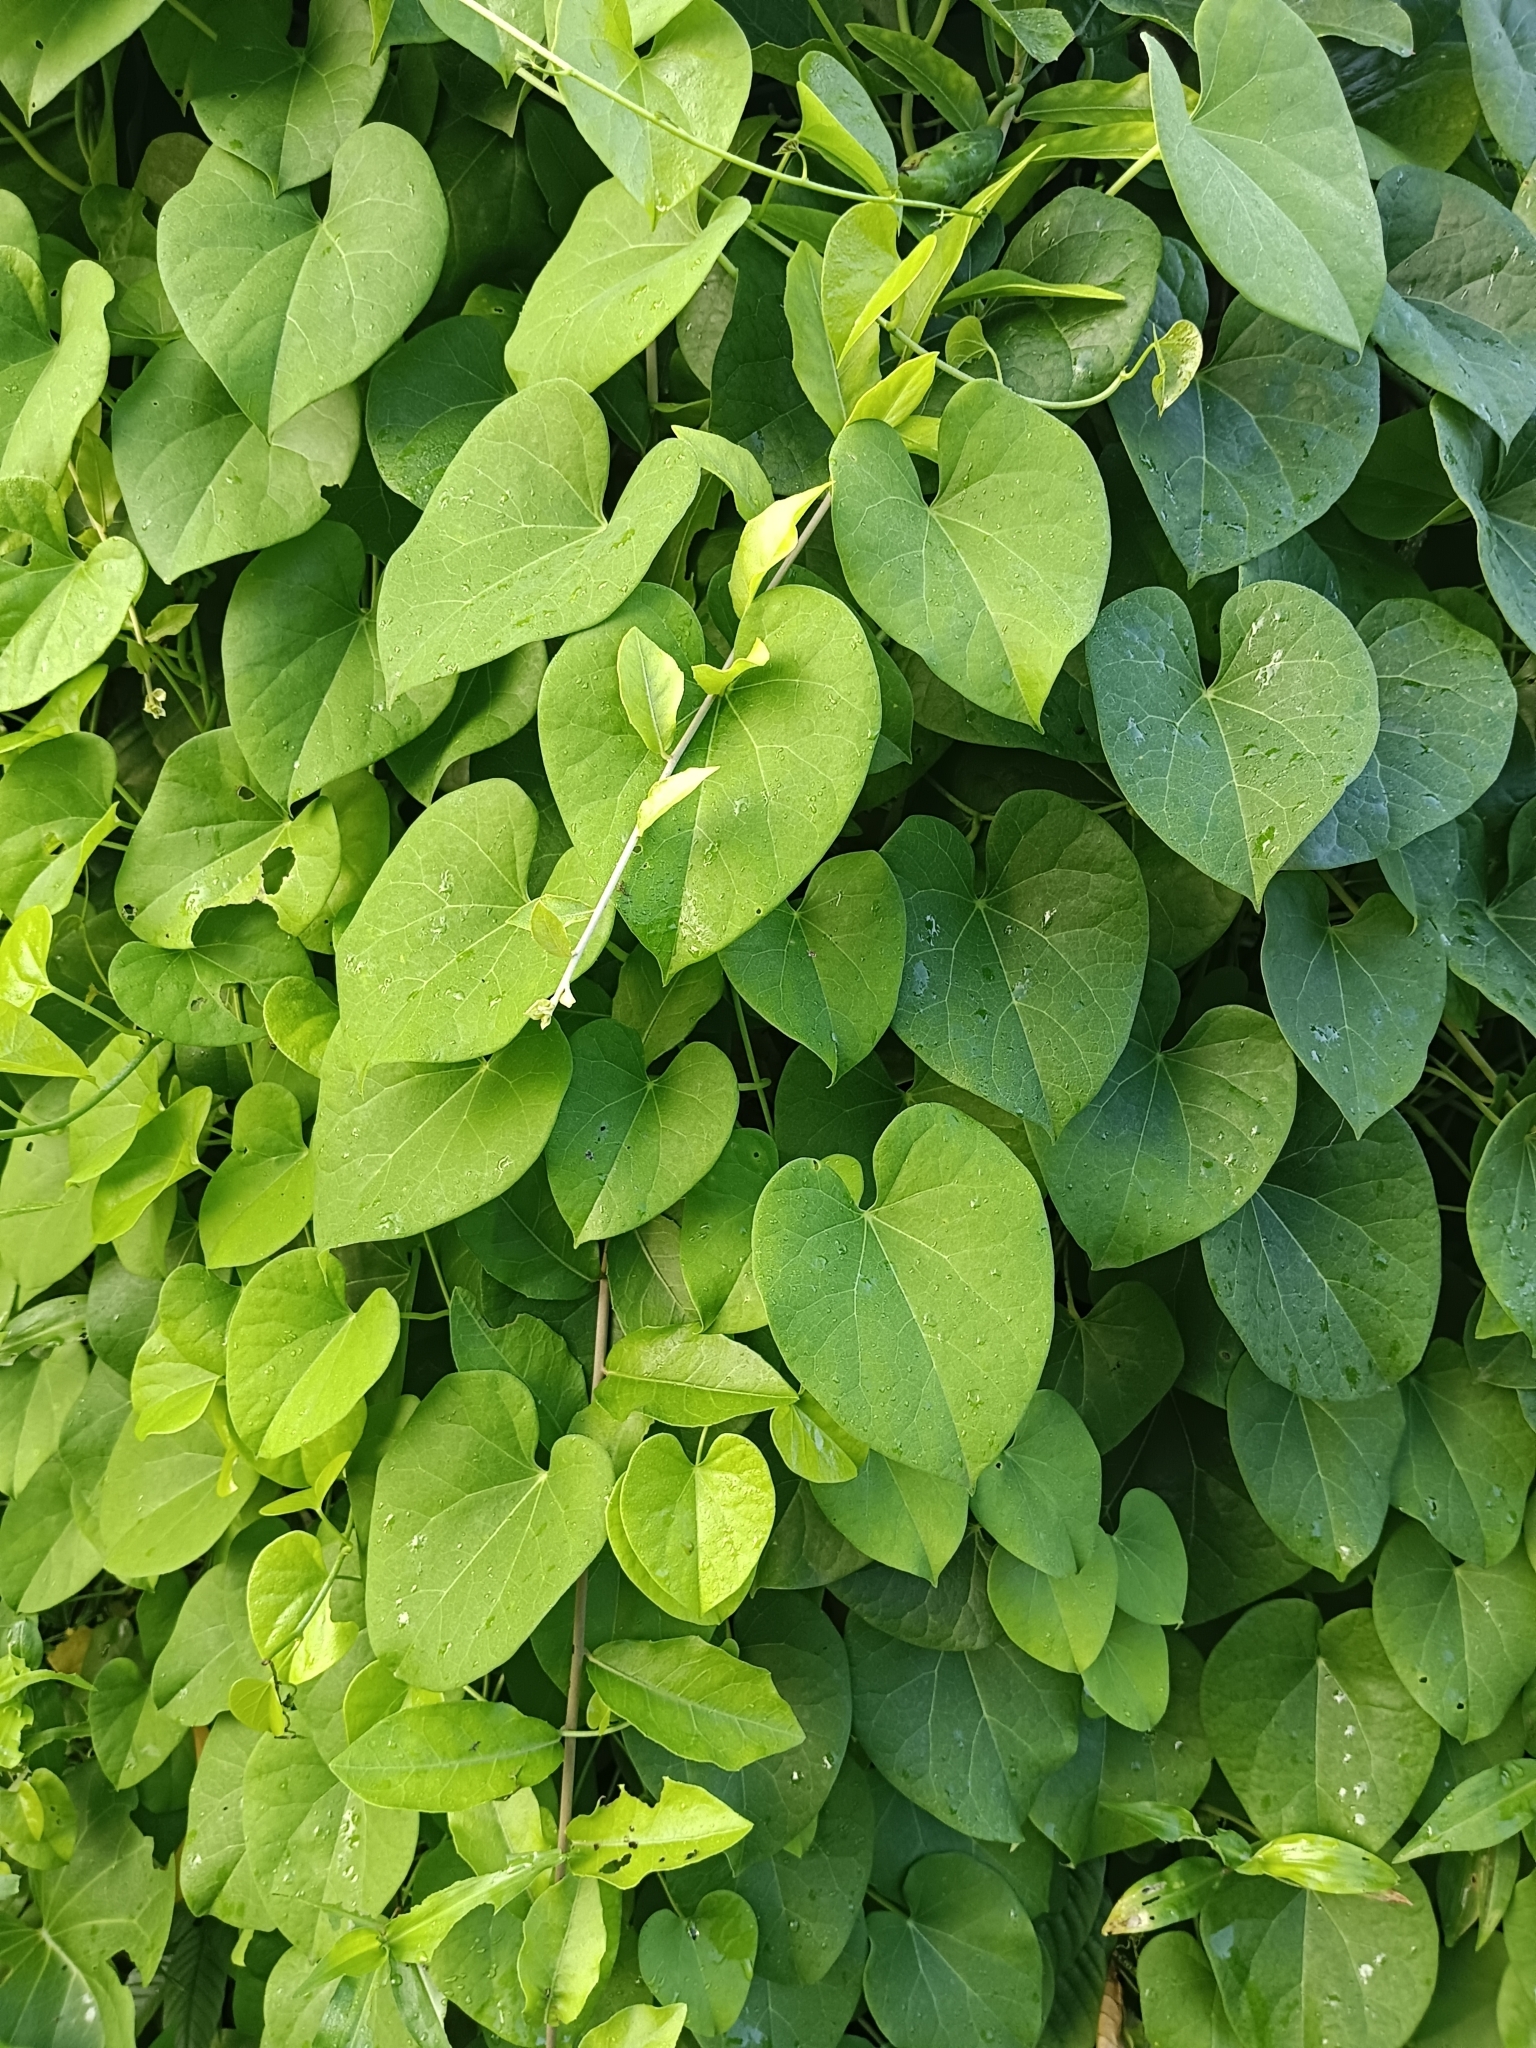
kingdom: Plantae
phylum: Tracheophyta
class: Magnoliopsida
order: Solanales
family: Convolvulaceae
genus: Ipomoea
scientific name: Ipomoea violacea
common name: Beach moonflower
